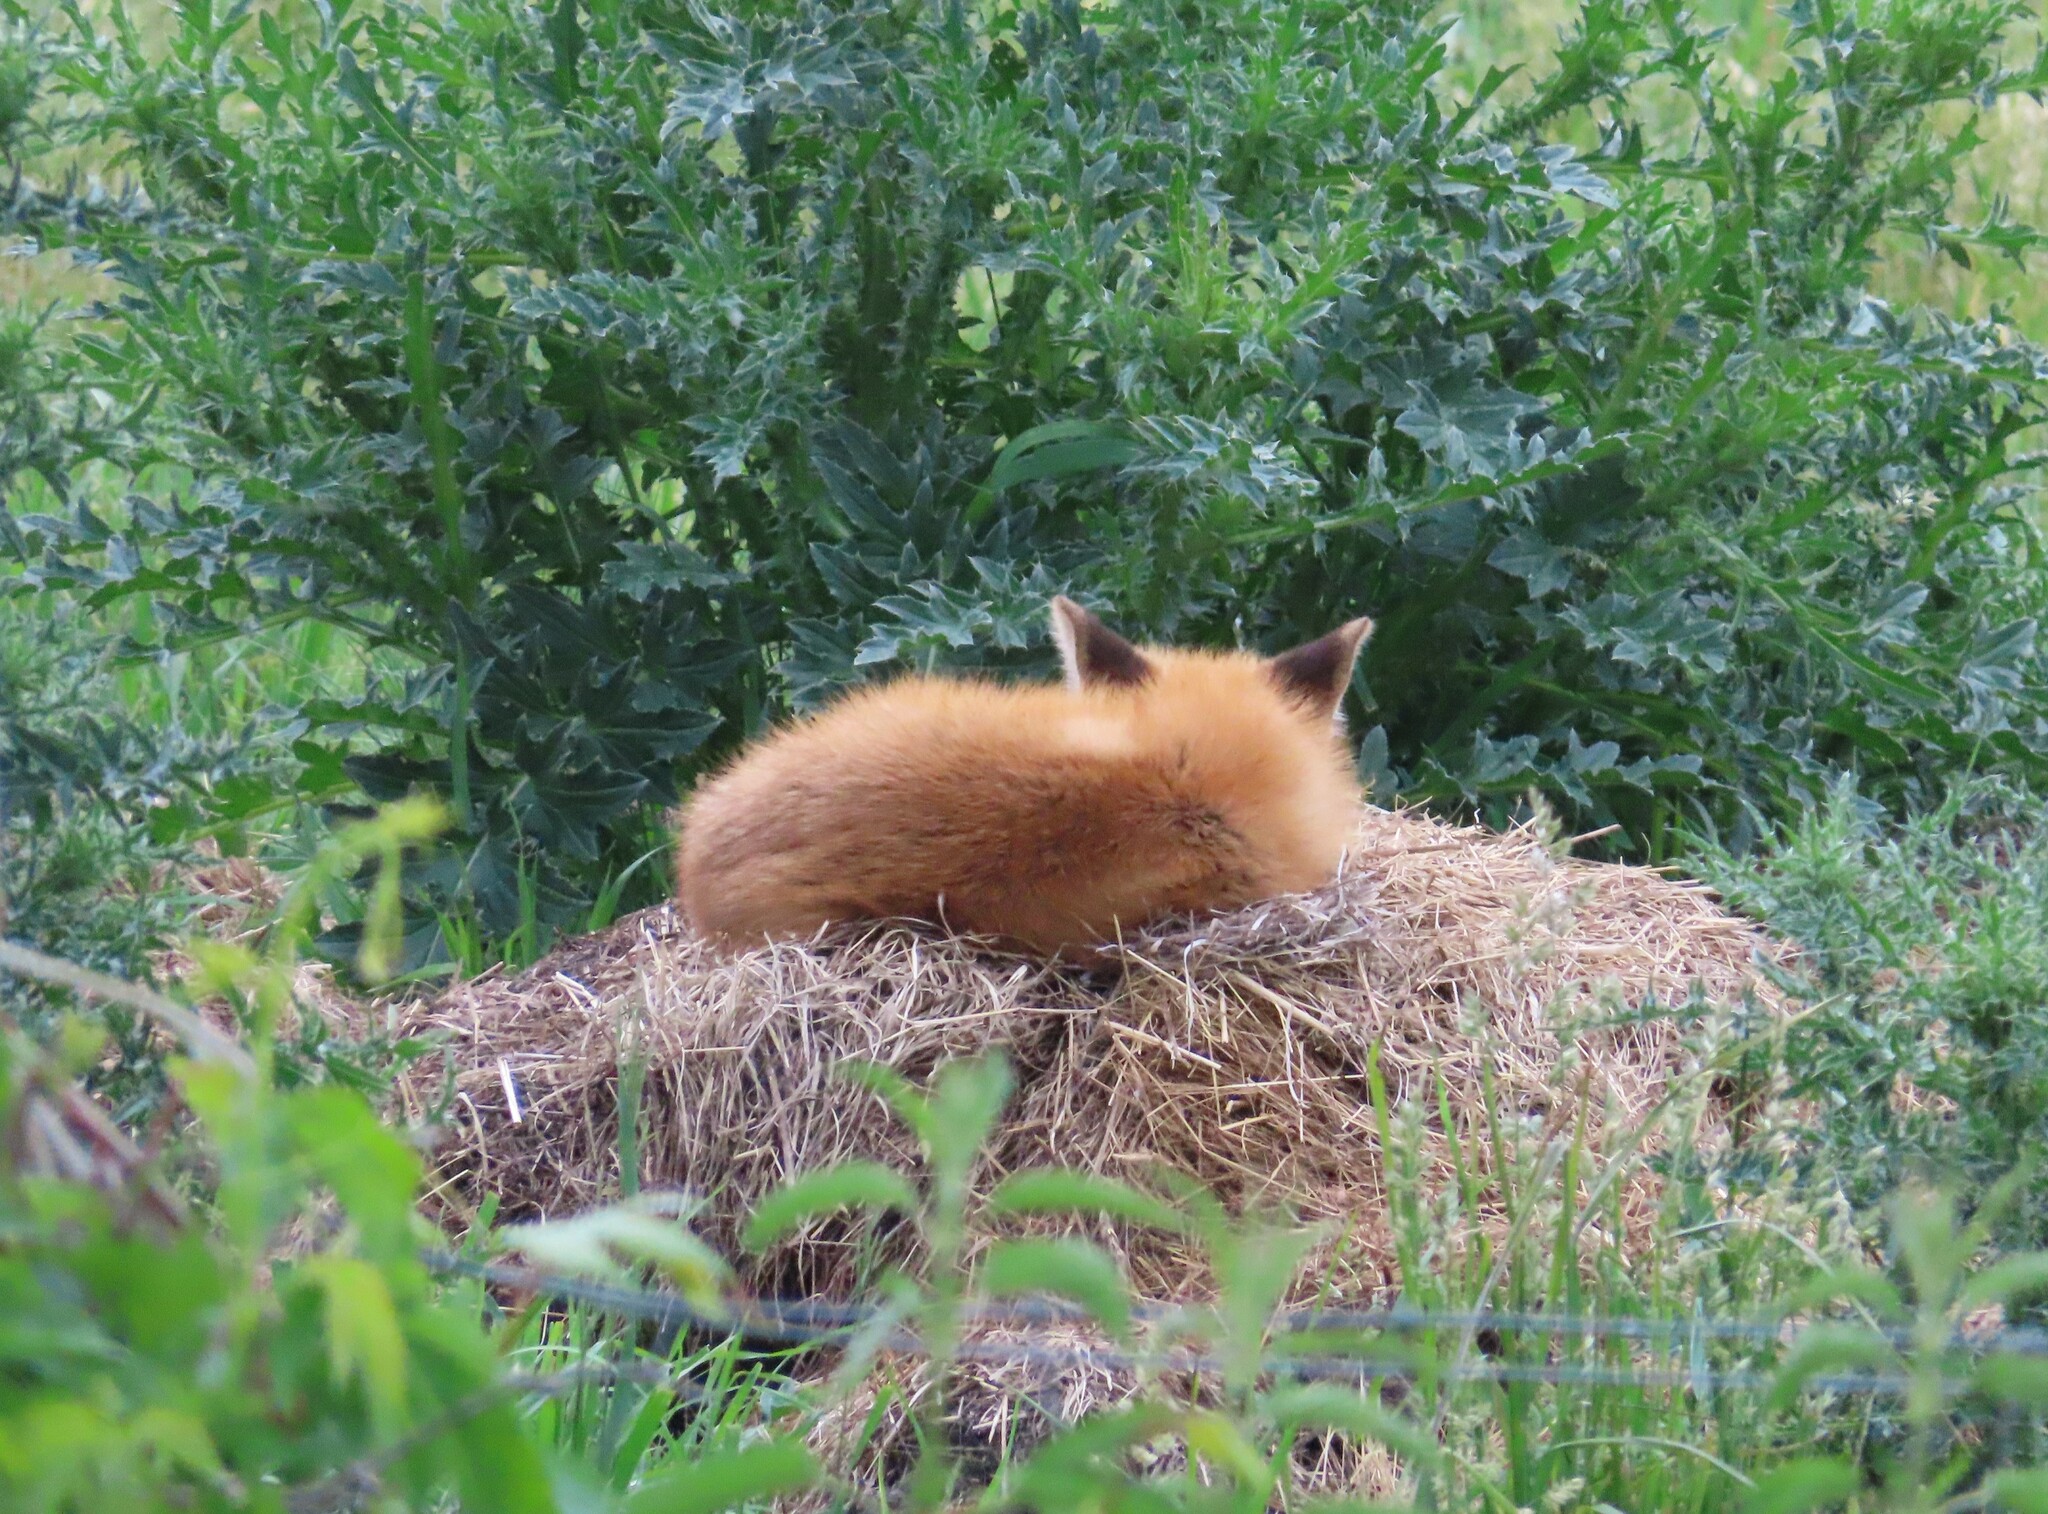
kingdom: Animalia
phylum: Chordata
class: Mammalia
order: Carnivora
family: Canidae
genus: Vulpes
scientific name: Vulpes vulpes
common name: Red fox
